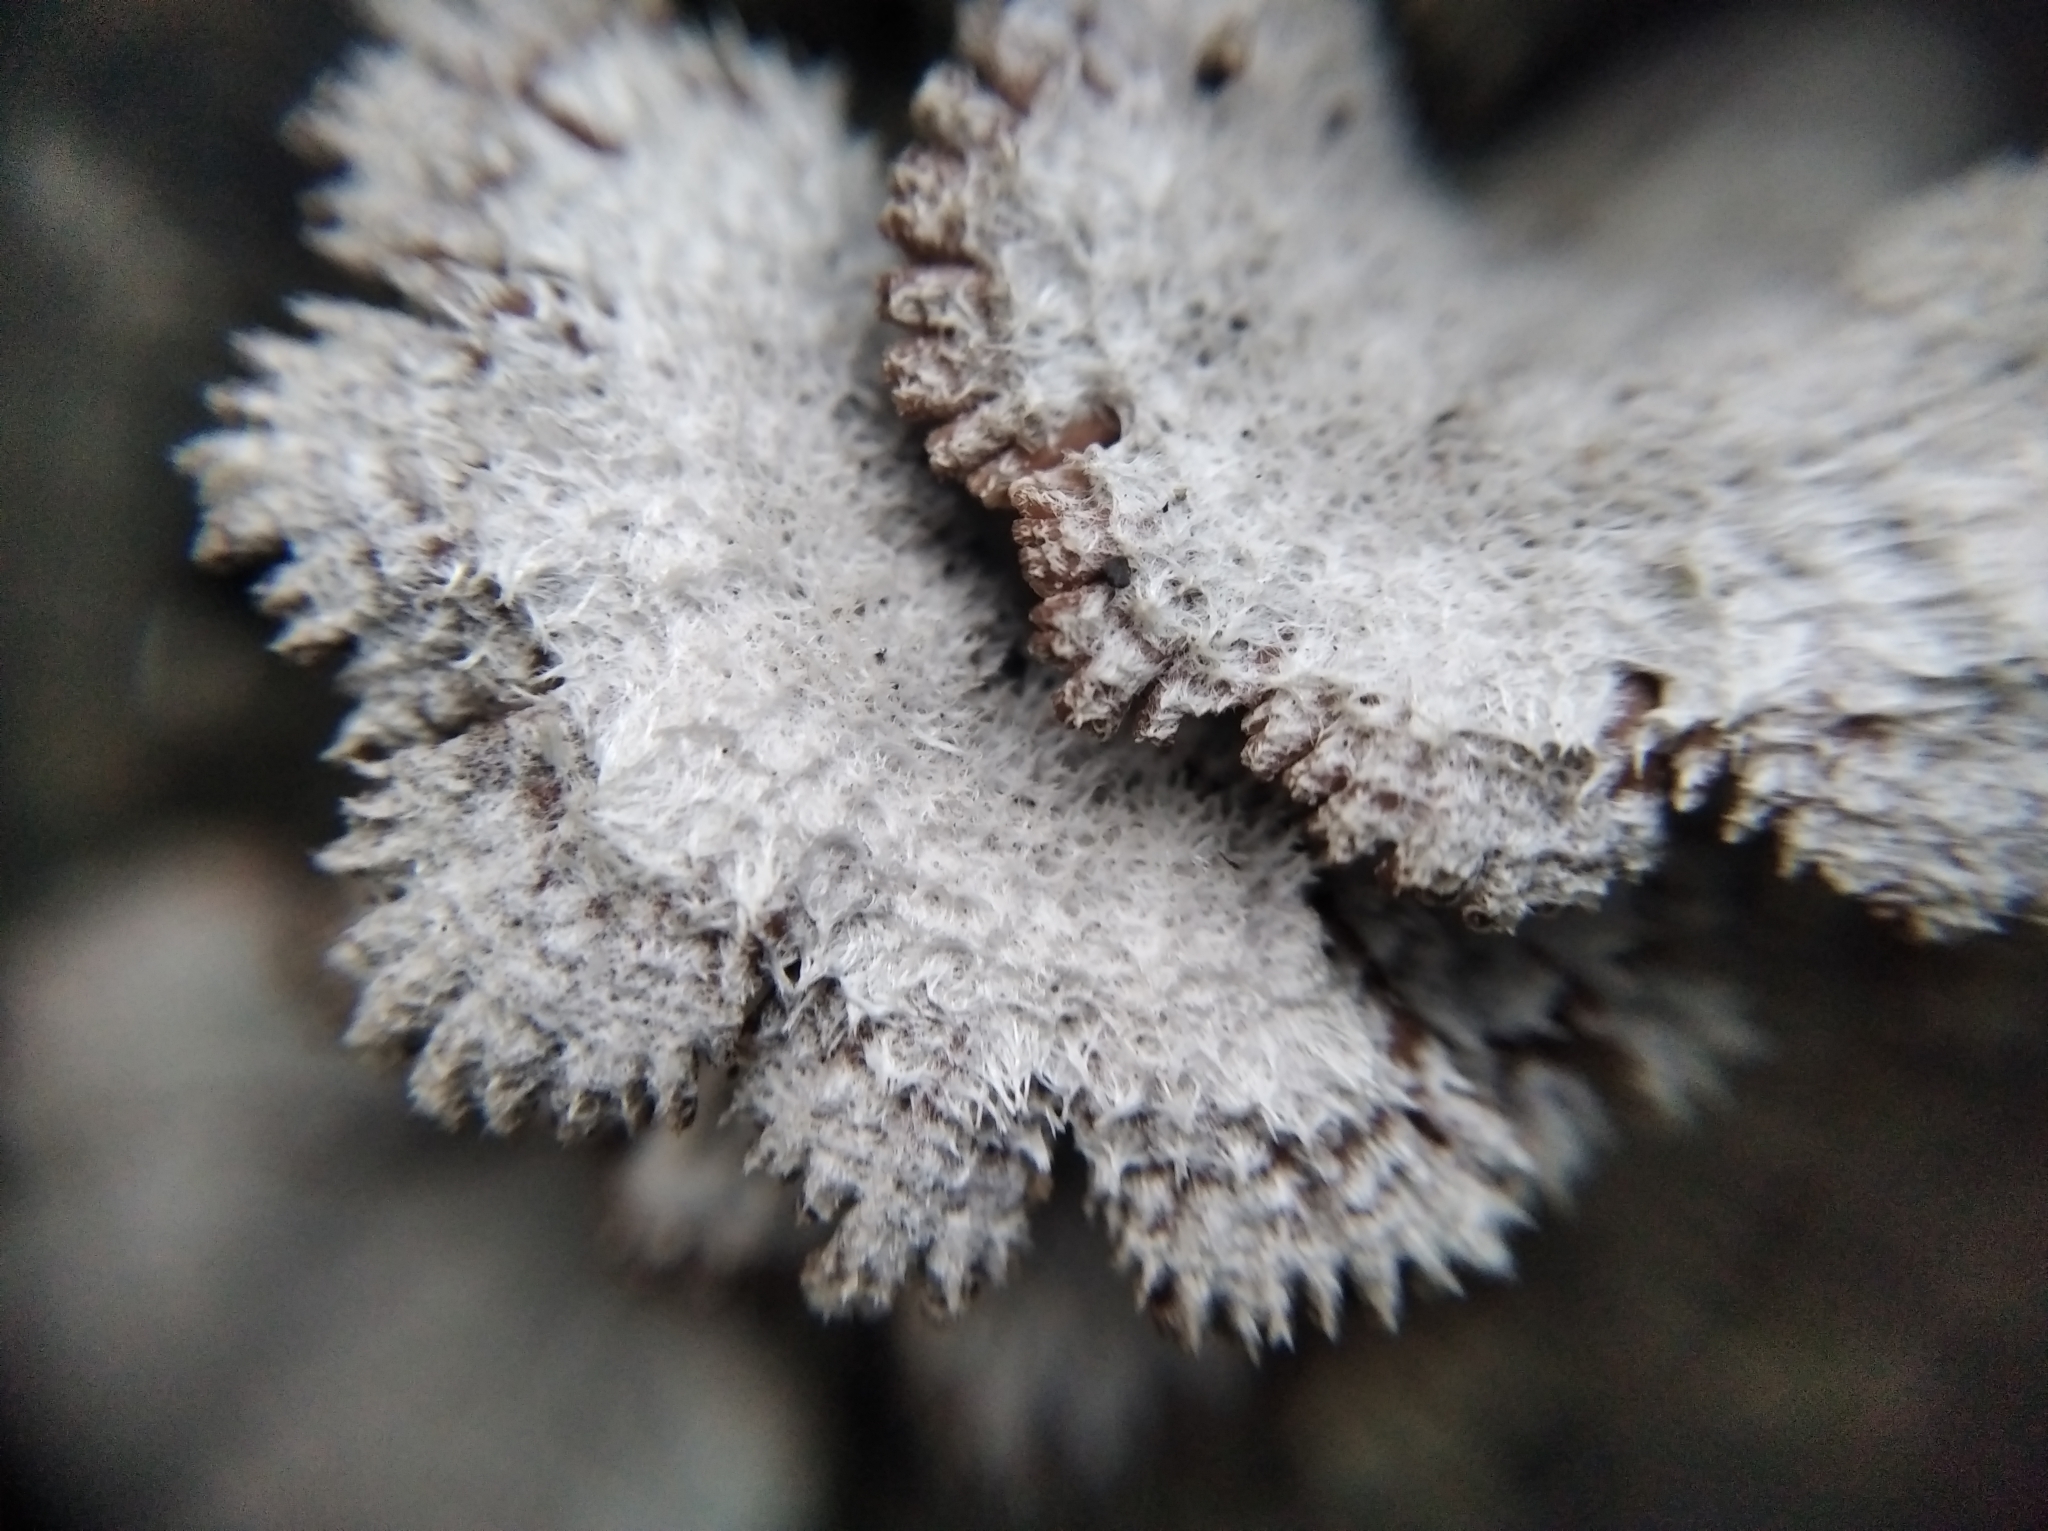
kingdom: Fungi
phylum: Basidiomycota
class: Agaricomycetes
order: Agaricales
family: Schizophyllaceae
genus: Schizophyllum
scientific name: Schizophyllum commune
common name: Common porecrust
